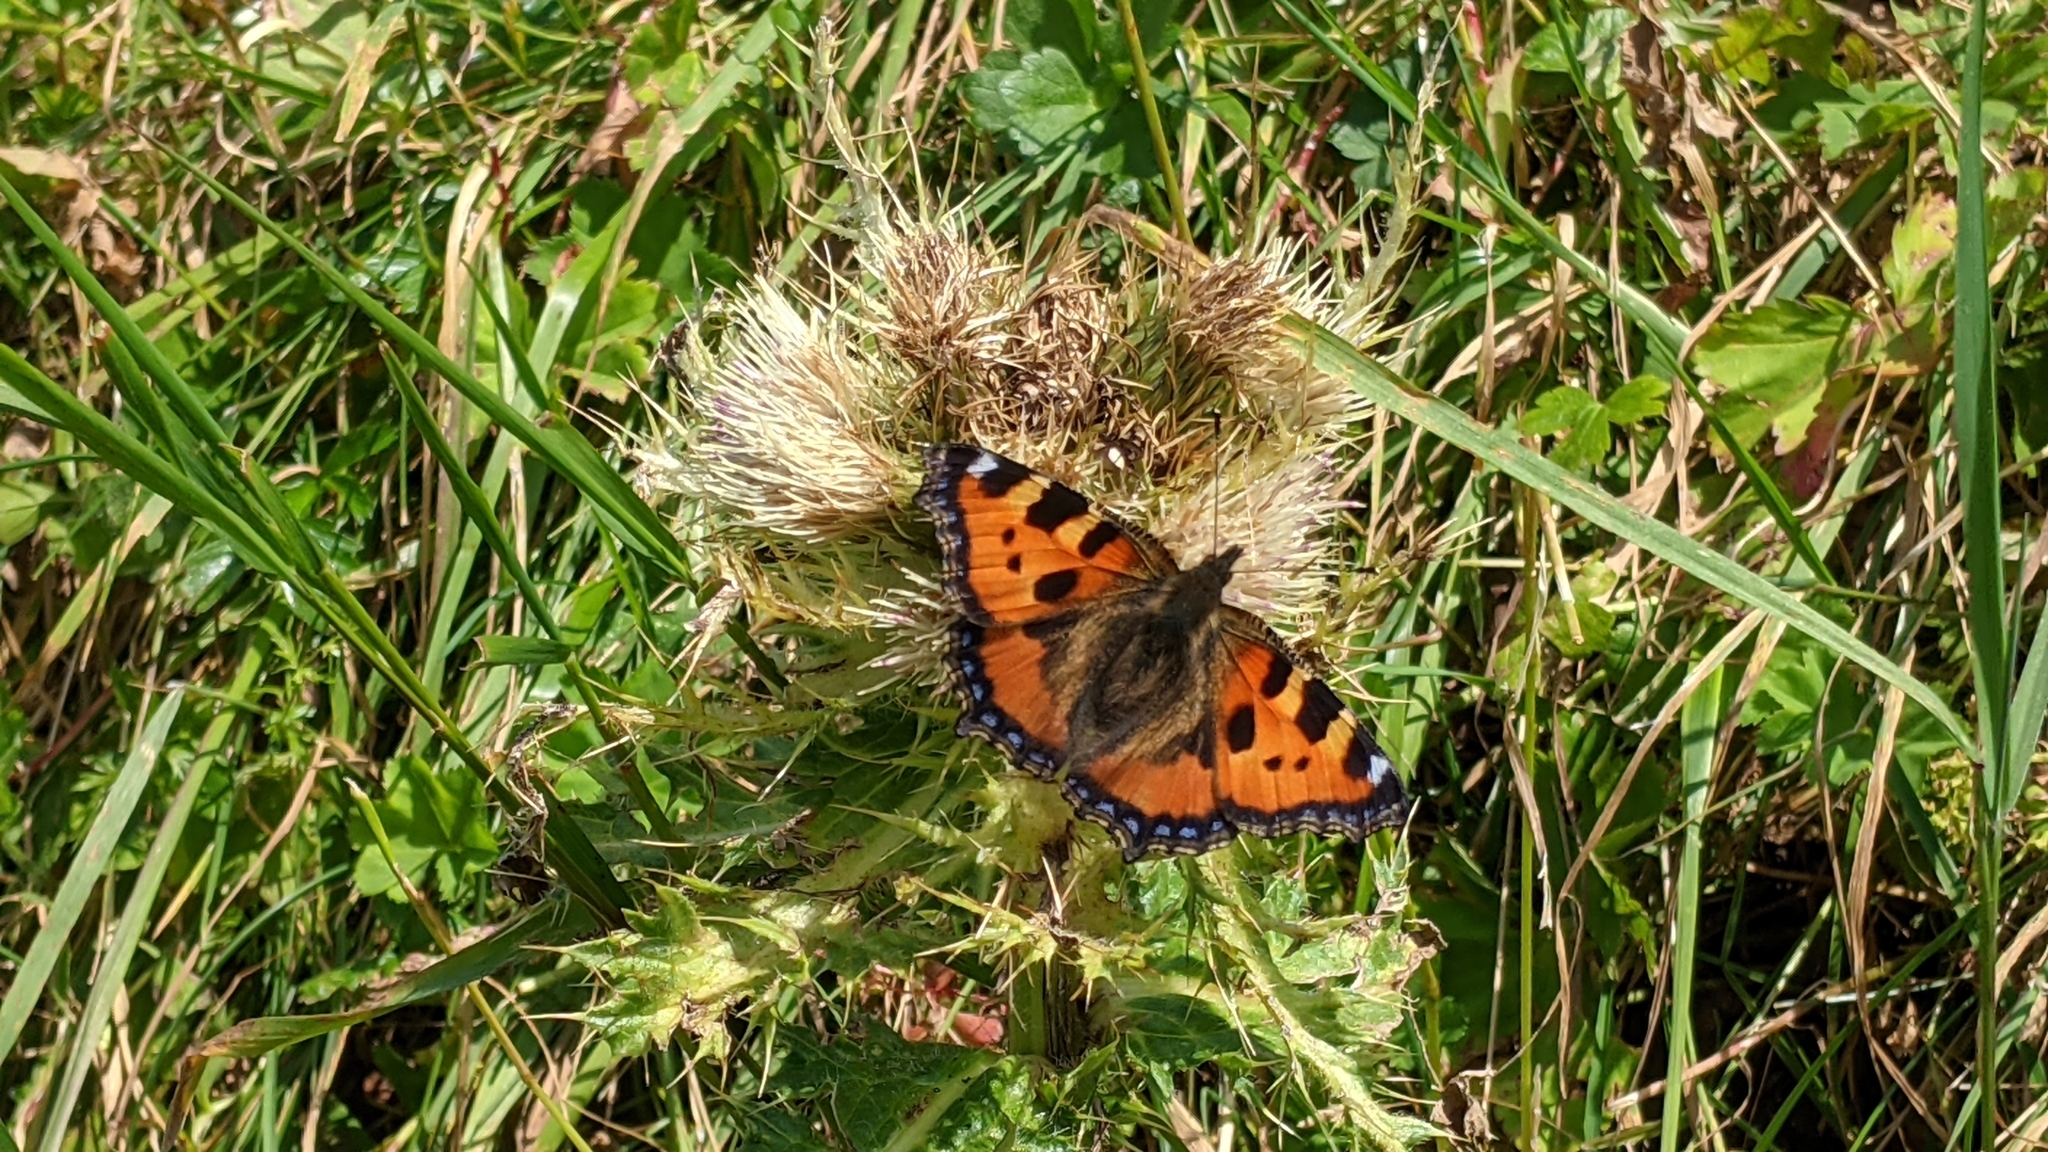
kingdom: Animalia
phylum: Arthropoda
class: Insecta
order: Lepidoptera
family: Nymphalidae
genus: Aglais
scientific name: Aglais urticae
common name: Small tortoiseshell
